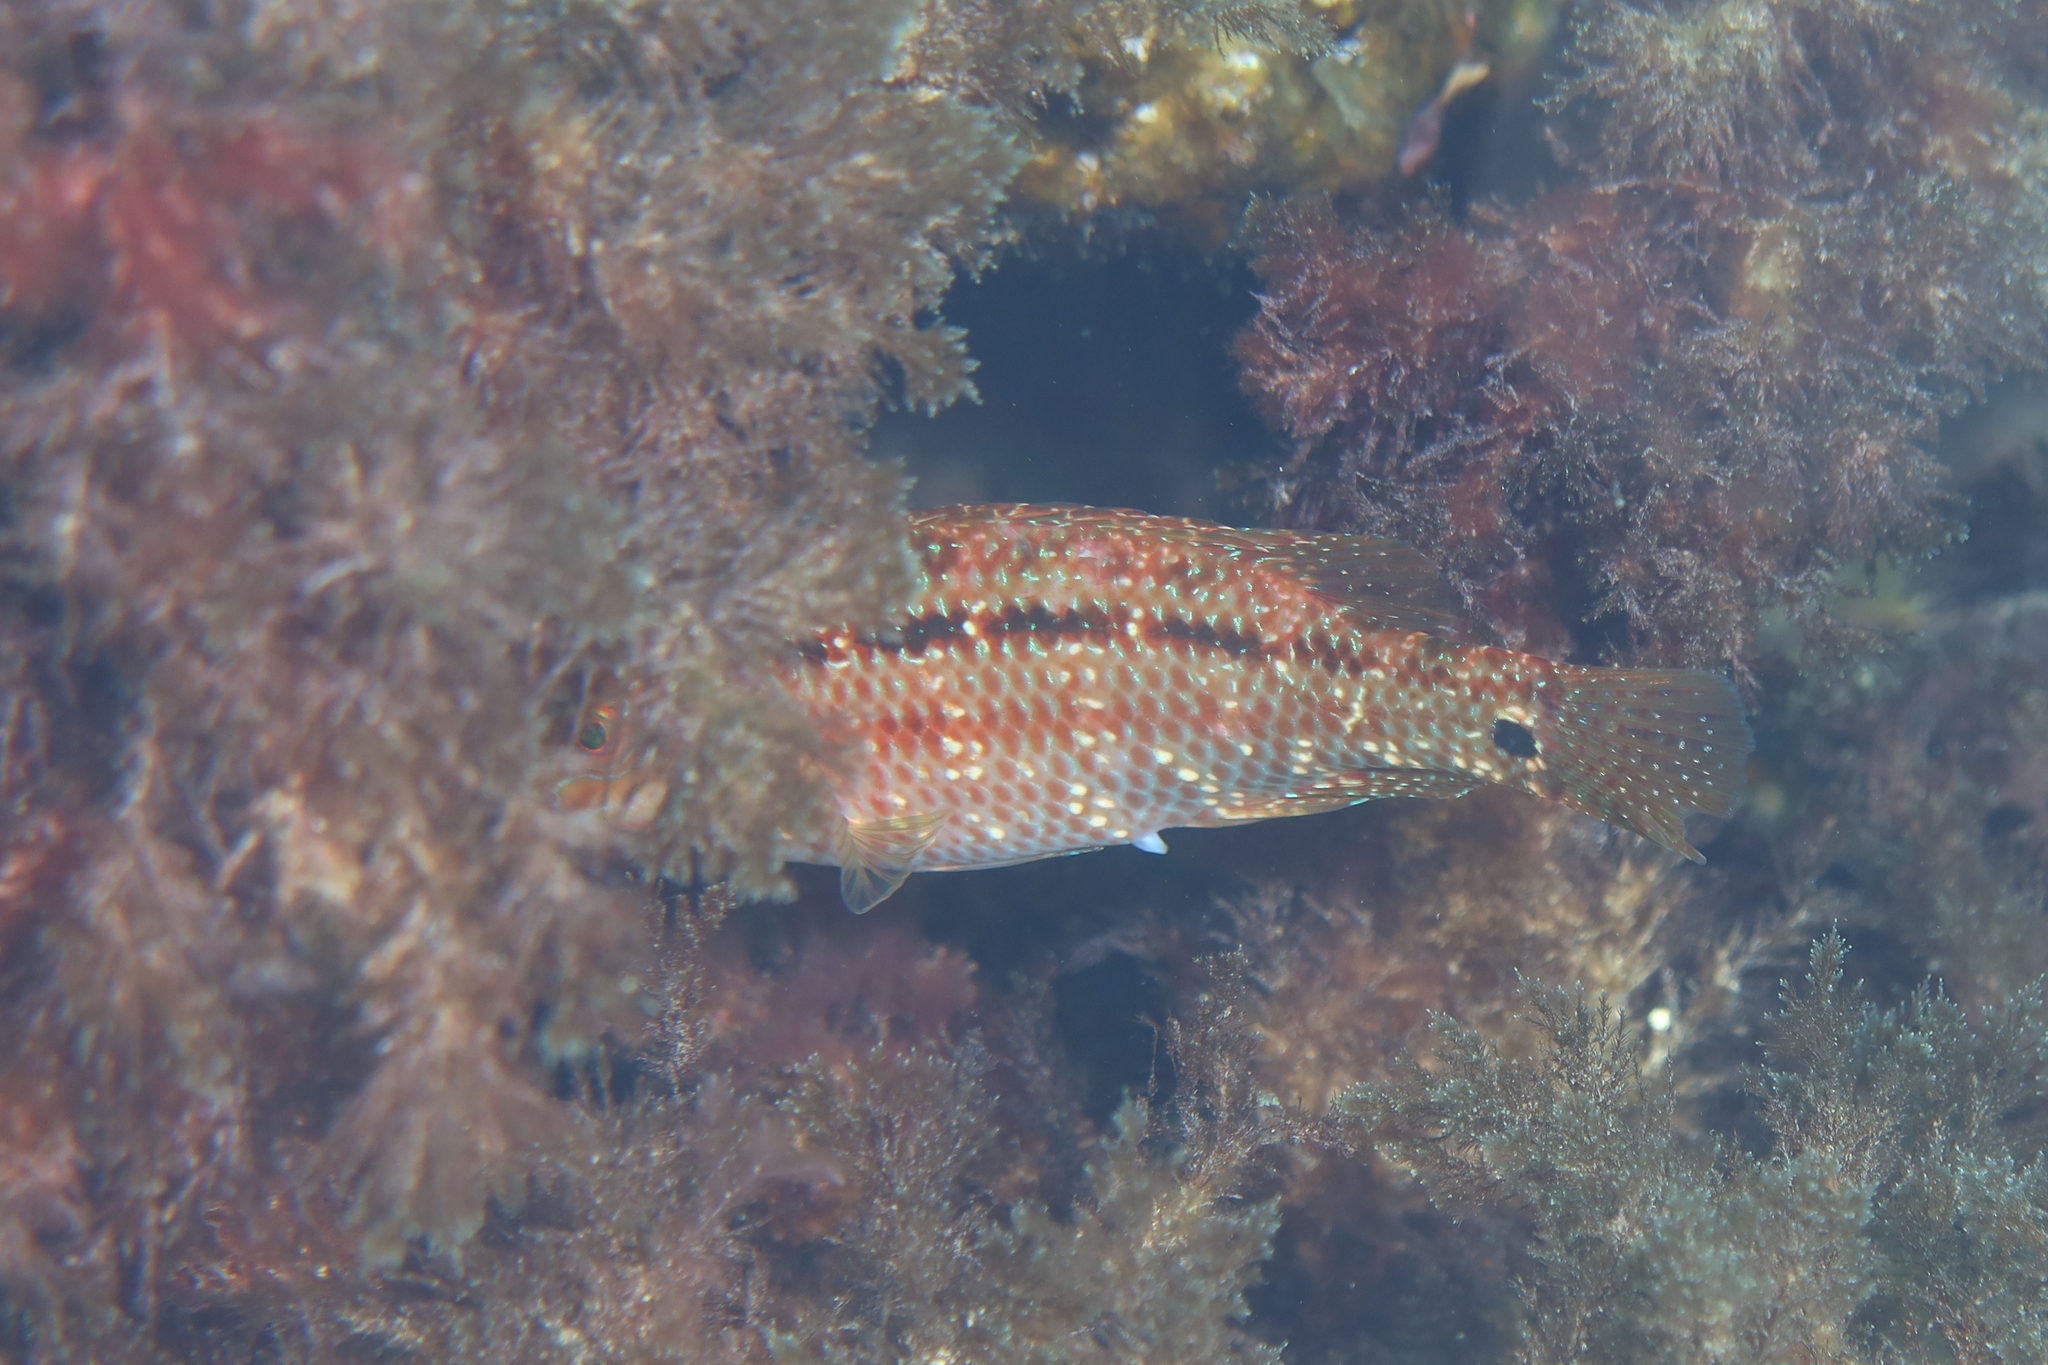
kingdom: Animalia
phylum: Chordata
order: Perciformes
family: Labridae
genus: Symphodus
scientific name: Symphodus trutta
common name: Emerald wrasse
